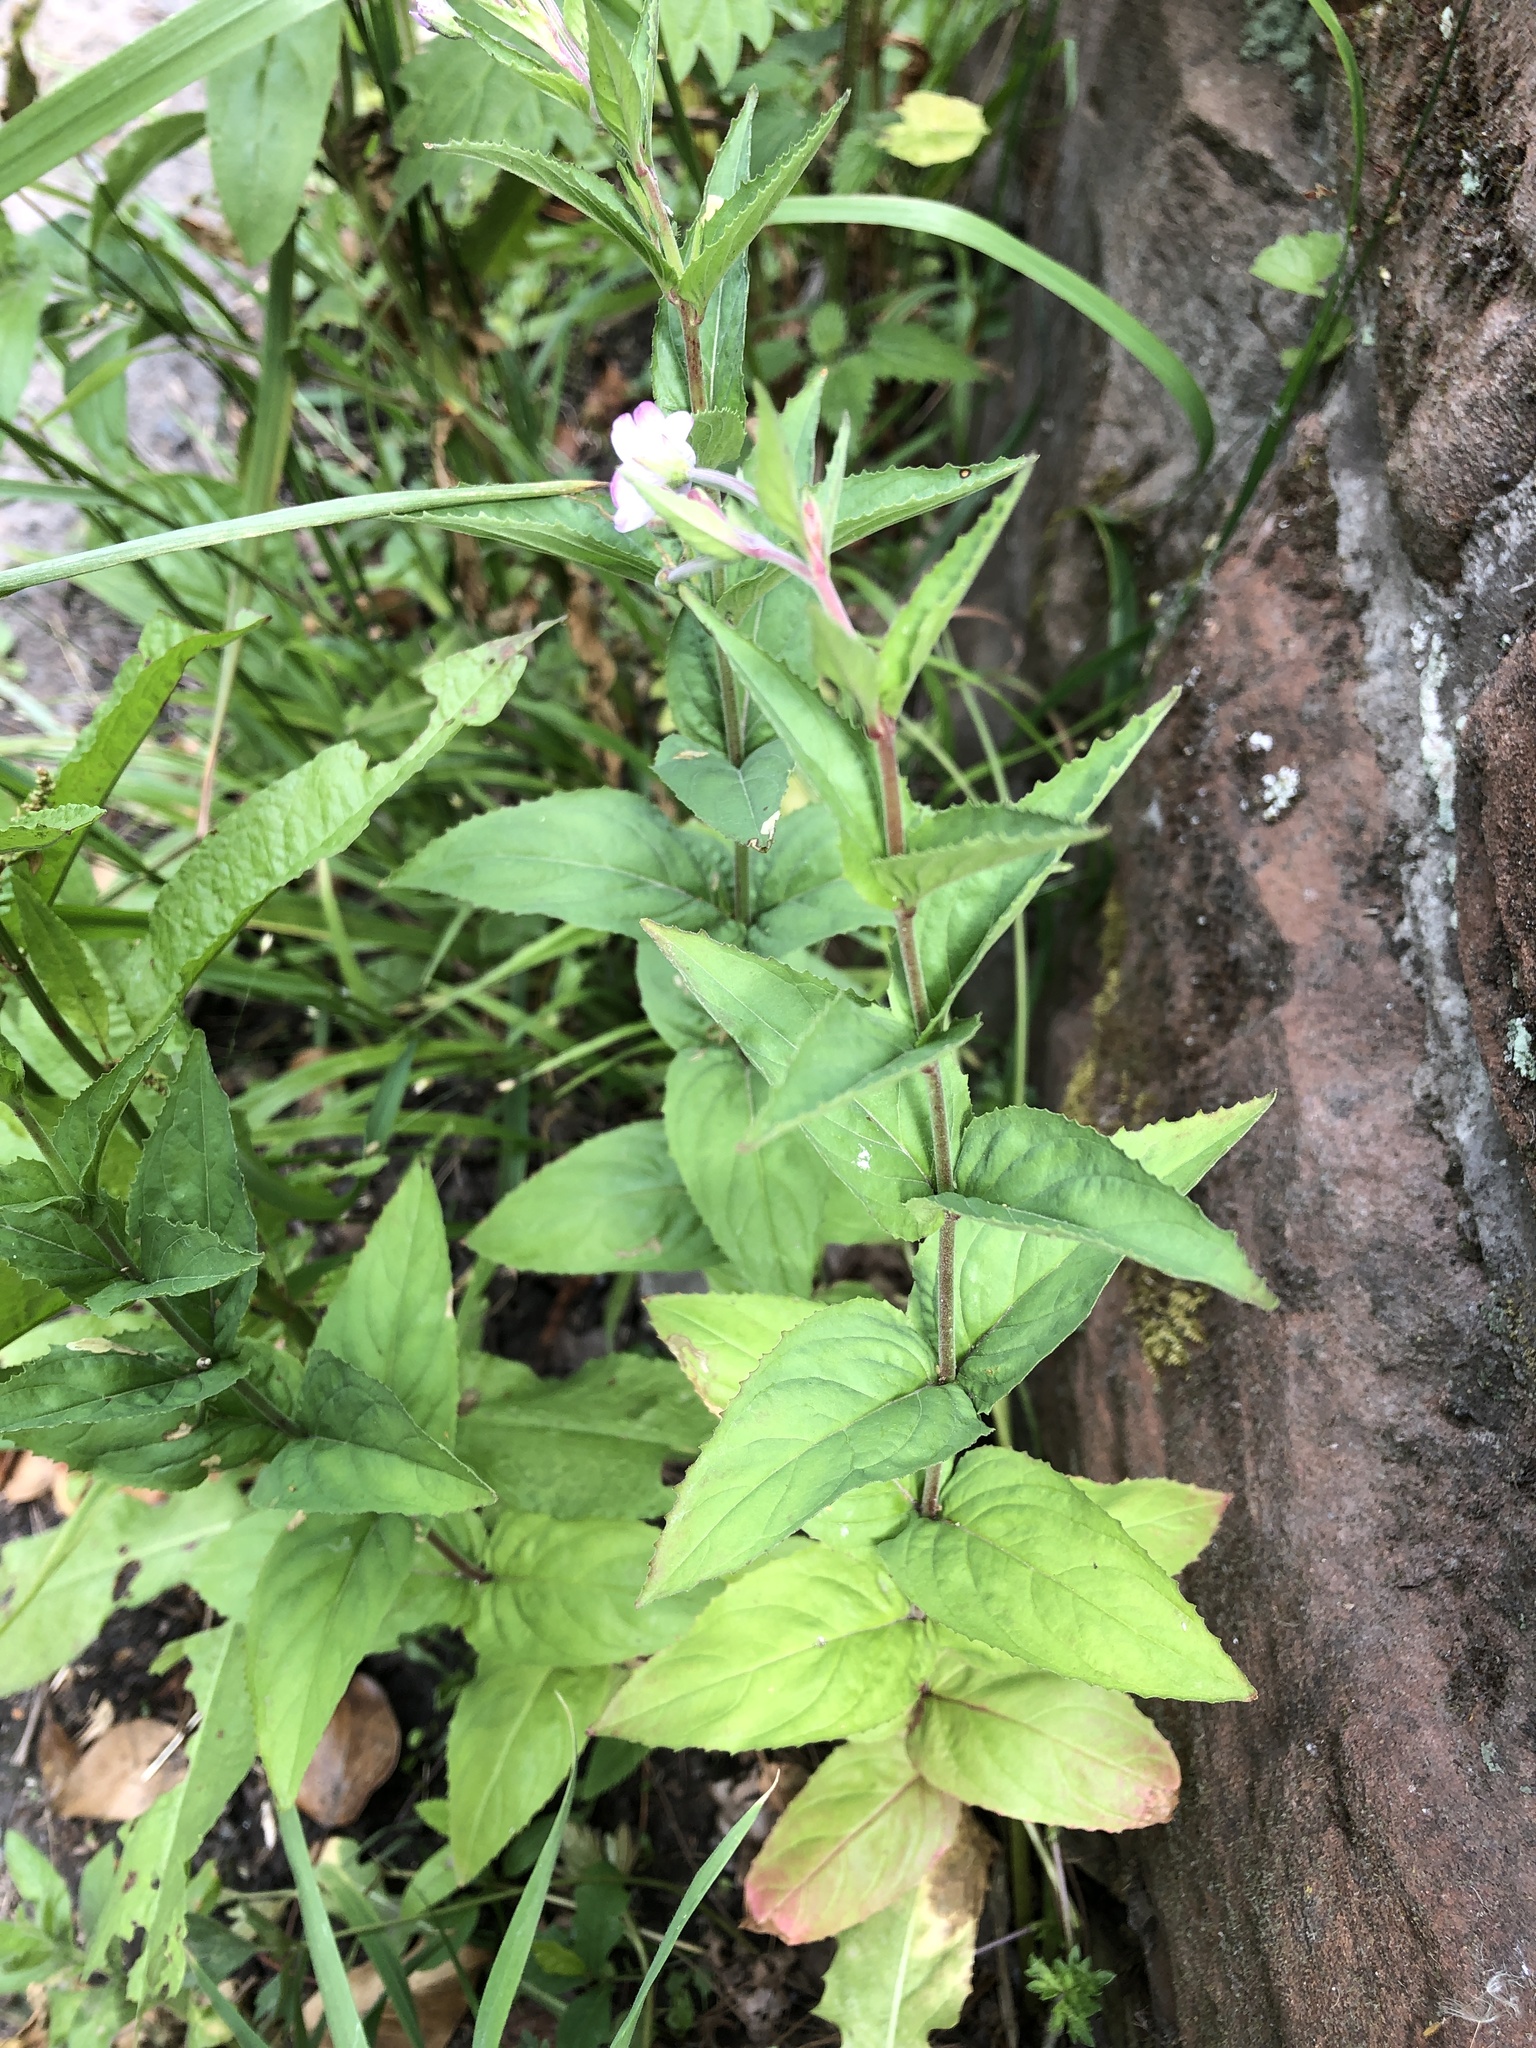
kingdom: Plantae
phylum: Tracheophyta
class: Magnoliopsida
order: Myrtales
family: Onagraceae
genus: Epilobium
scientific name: Epilobium montanum
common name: Broad-leaved willowherb
